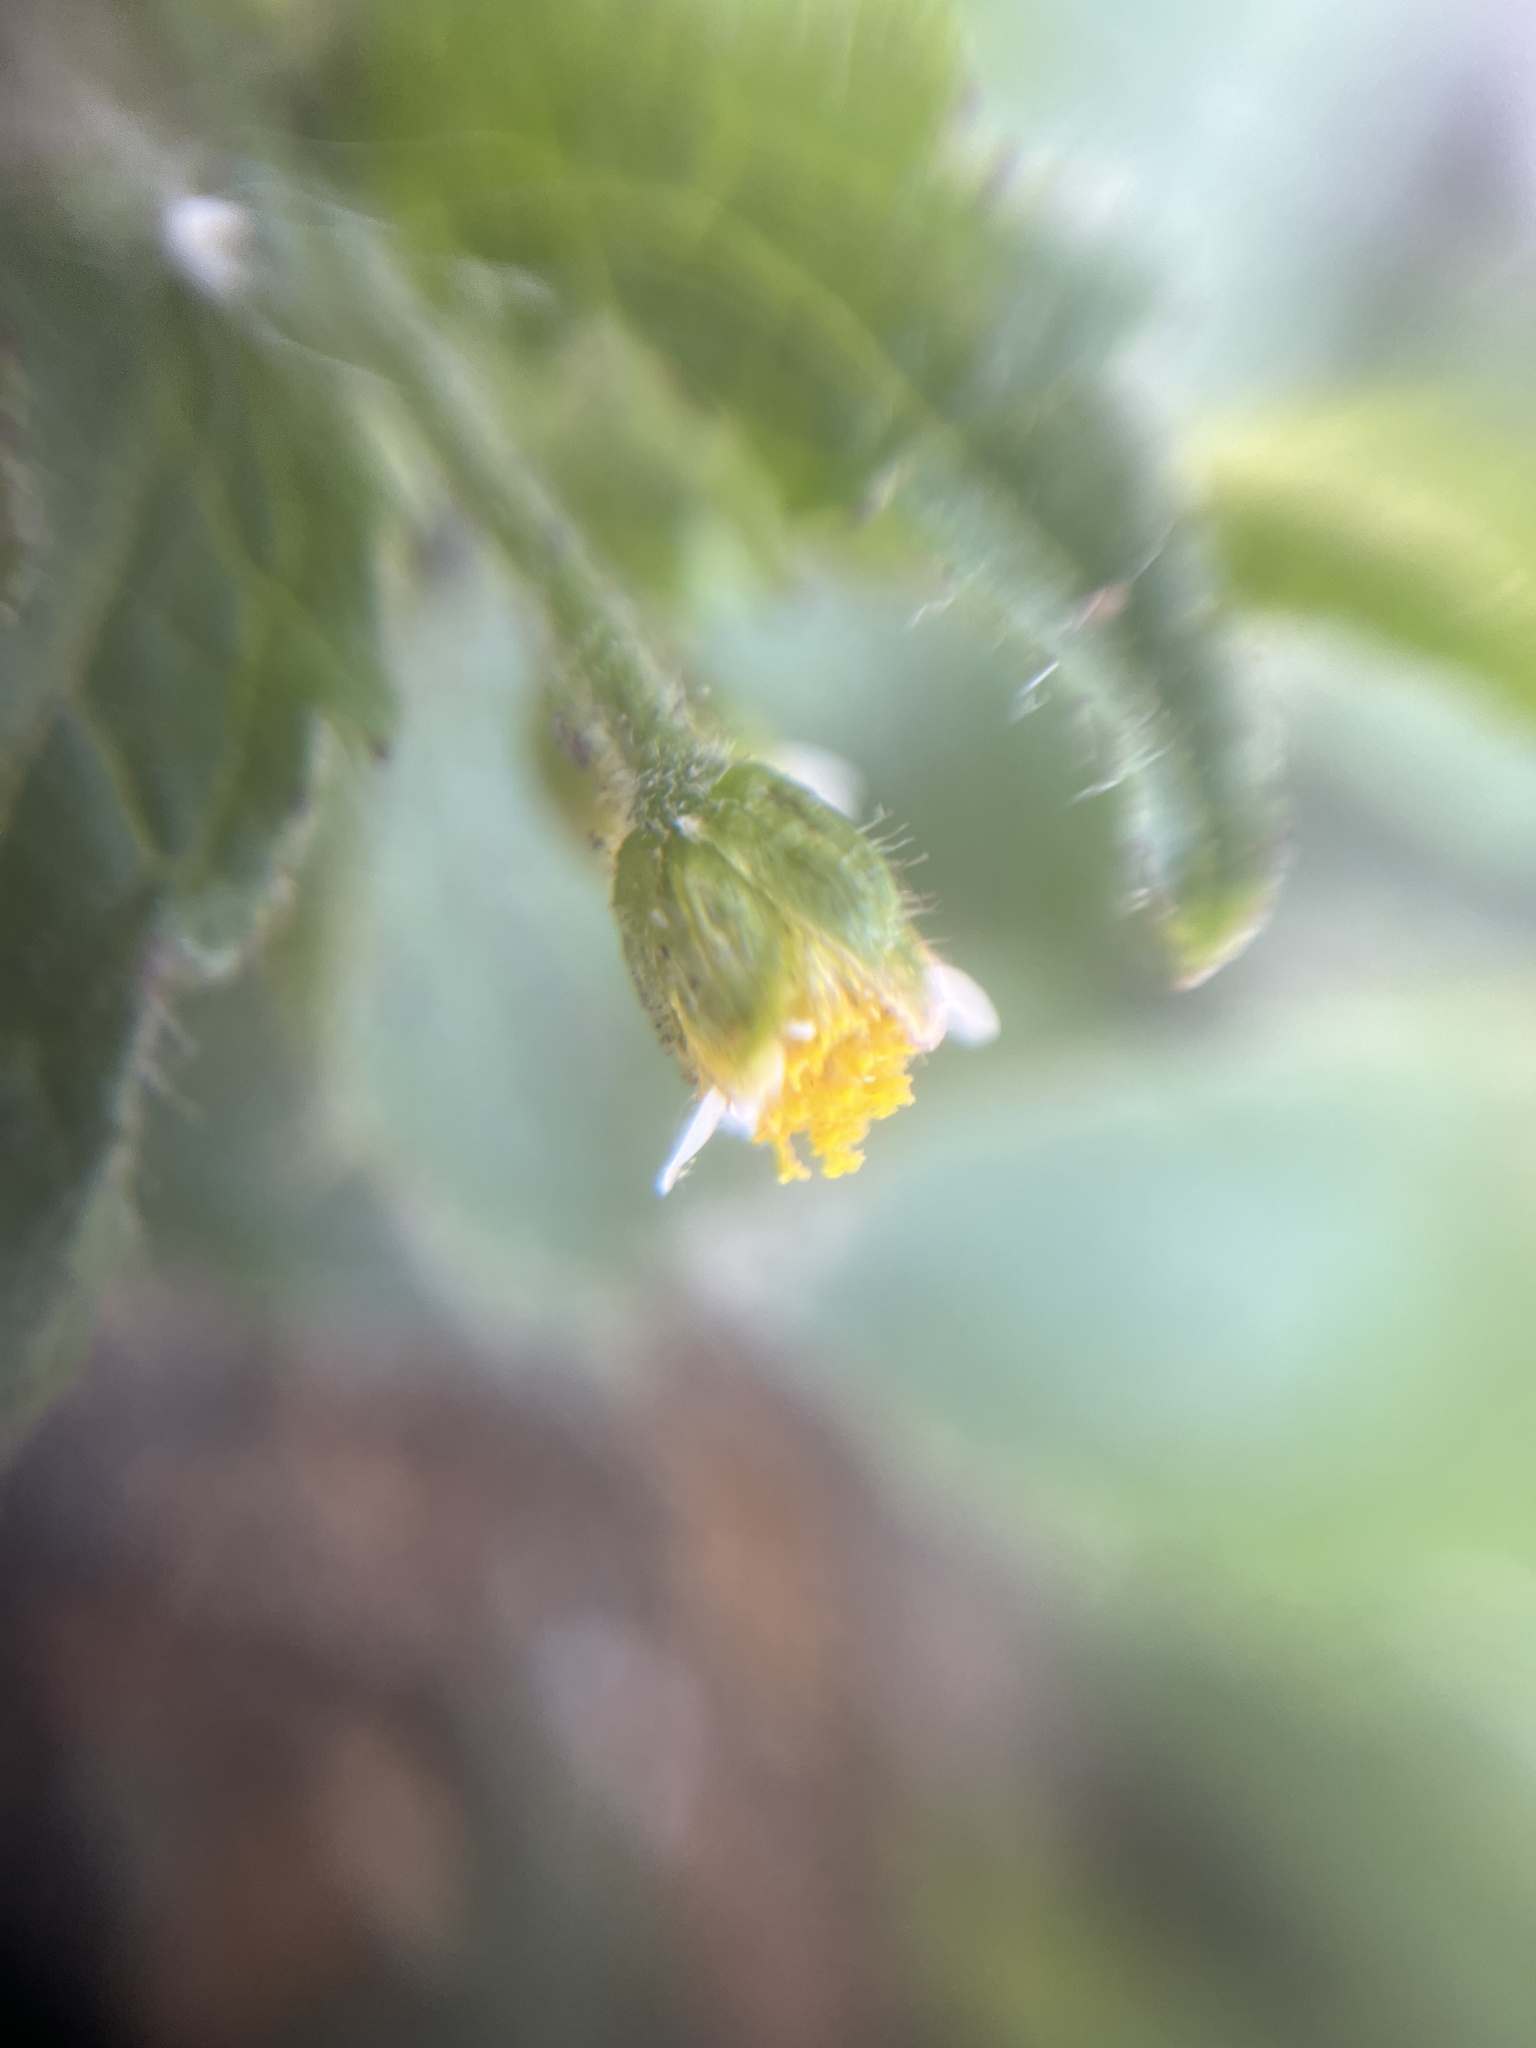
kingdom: Plantae
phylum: Tracheophyta
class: Magnoliopsida
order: Asterales
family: Asteraceae
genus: Galinsoga
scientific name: Galinsoga quadriradiata
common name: Shaggy soldier
